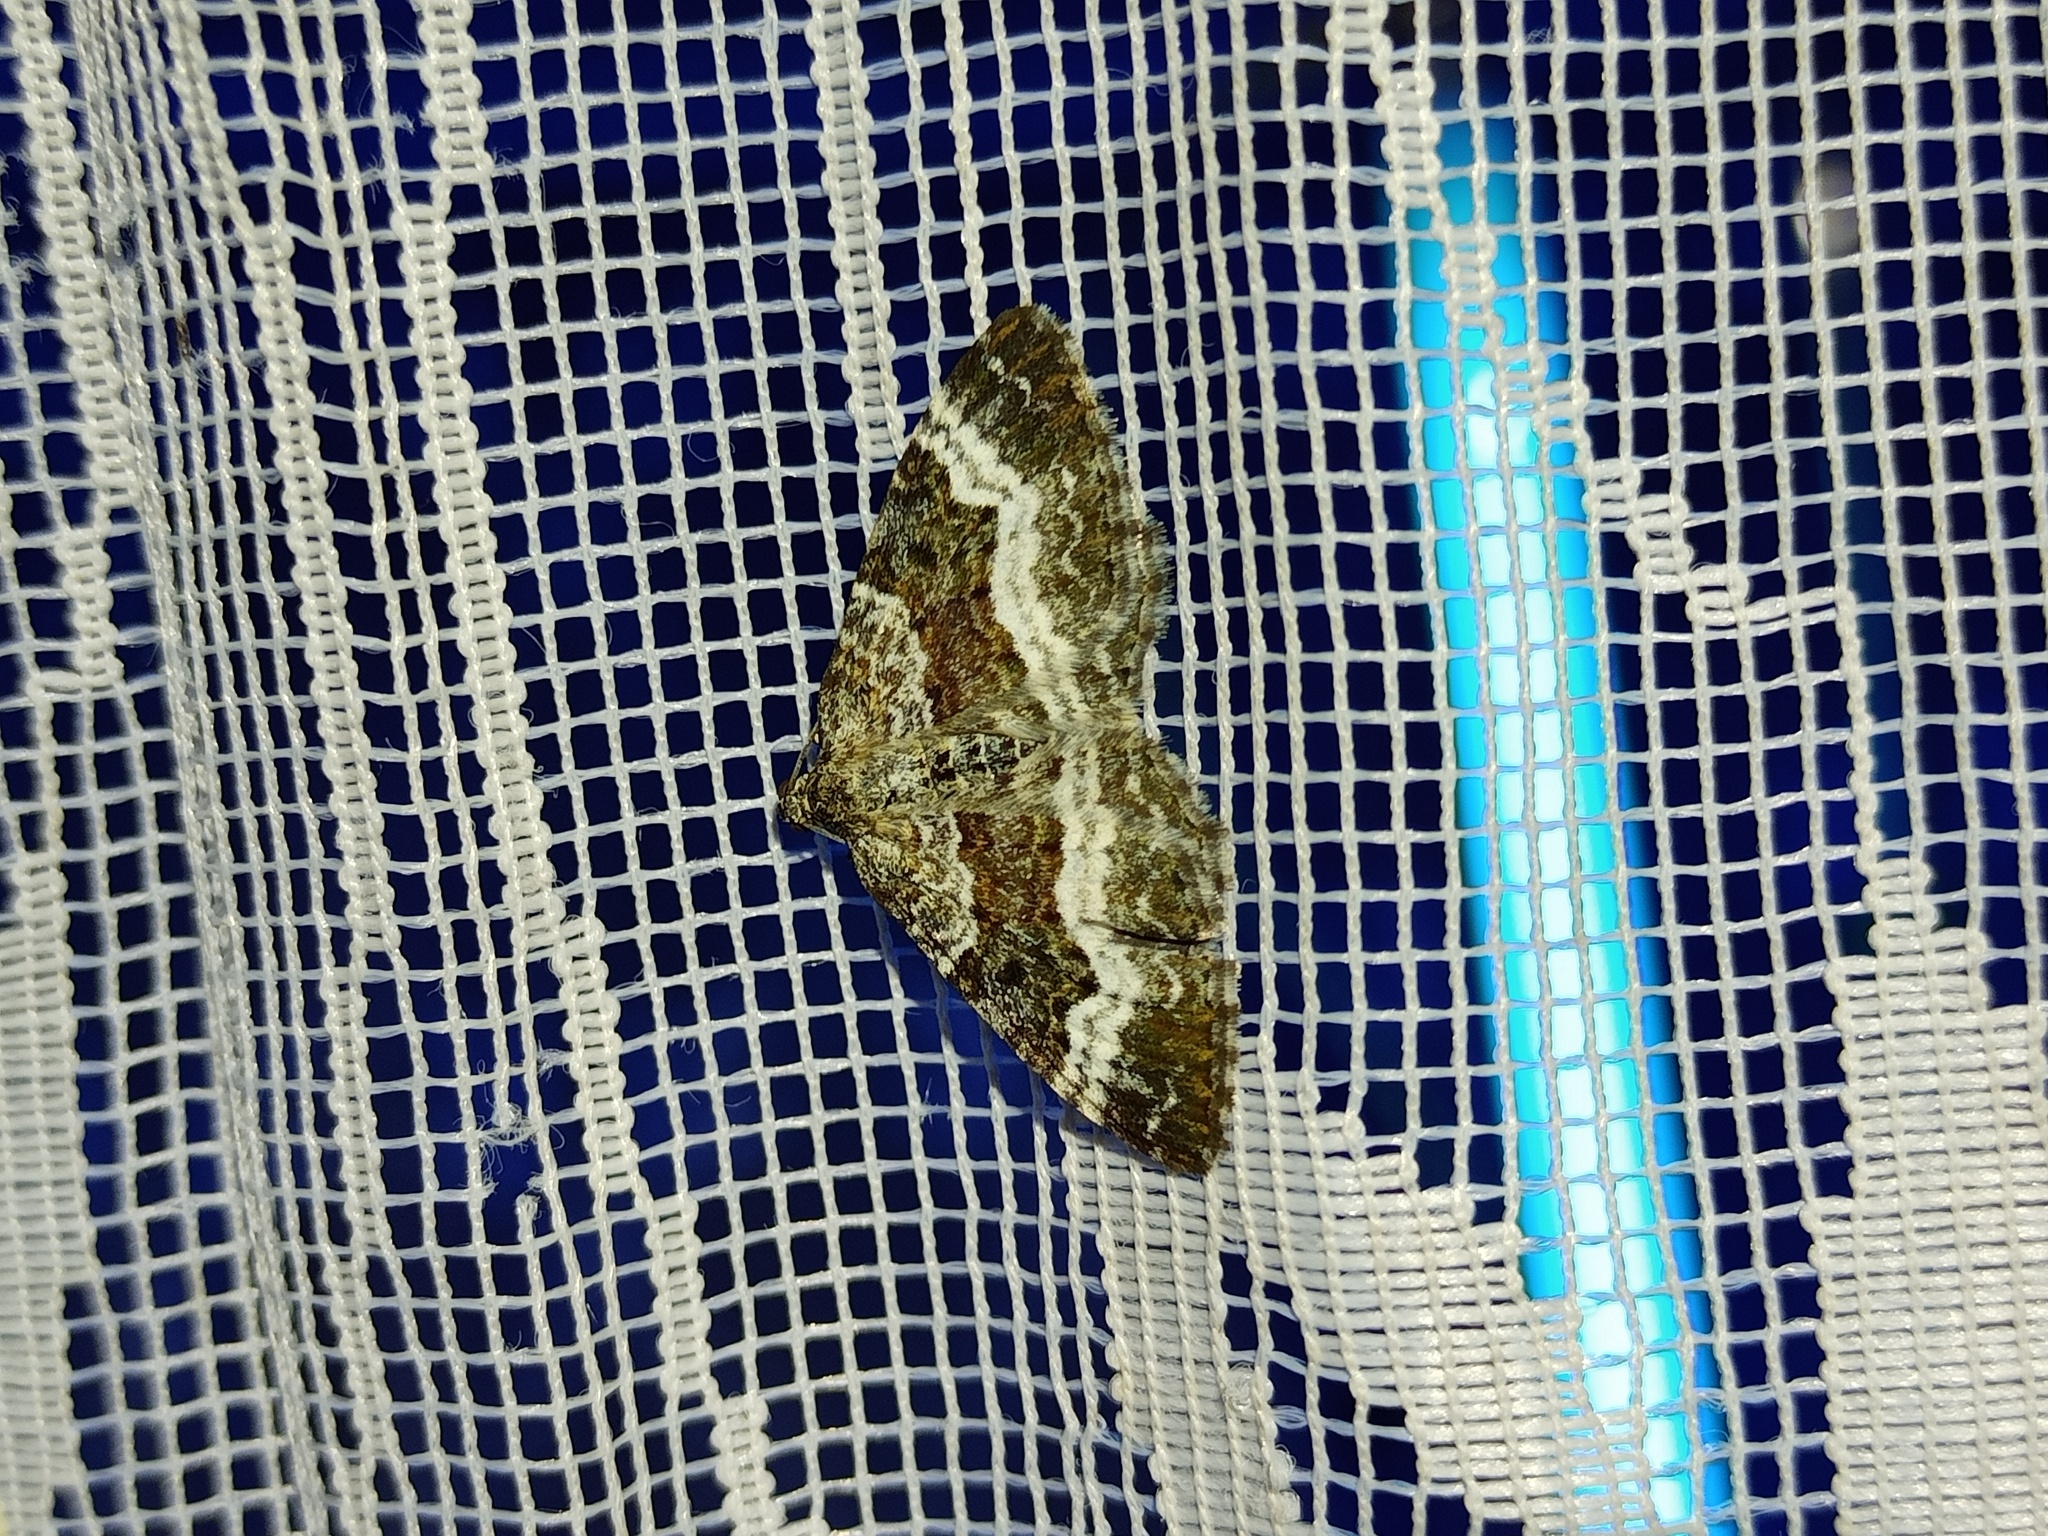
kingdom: Animalia
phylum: Arthropoda
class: Insecta
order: Lepidoptera
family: Geometridae
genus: Epirrhoe
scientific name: Epirrhoe alternata
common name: Common carpet
